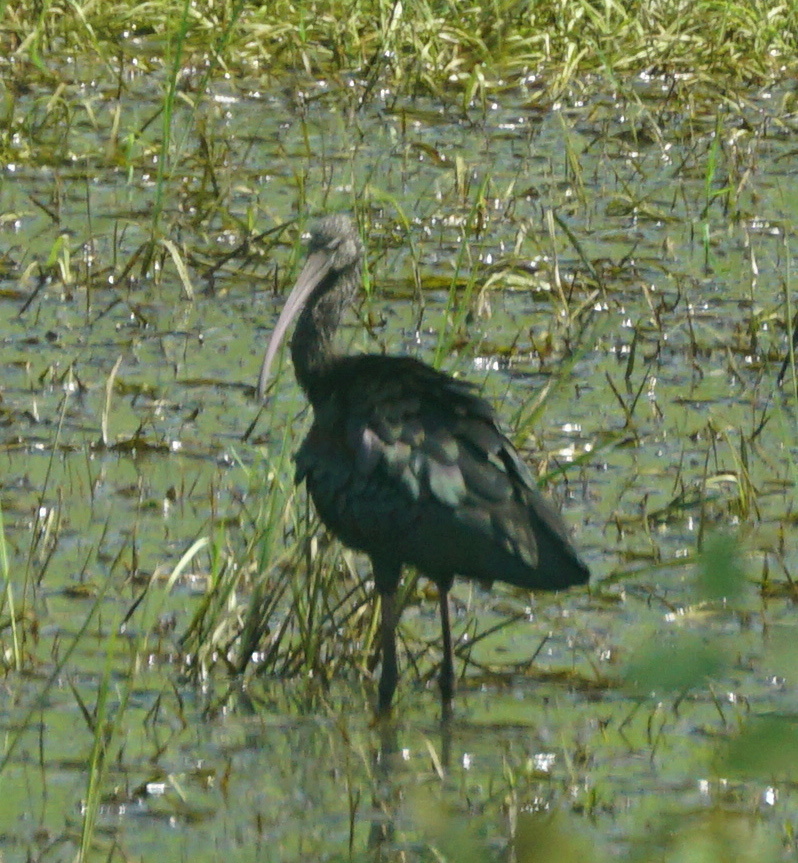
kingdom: Animalia
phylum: Chordata
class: Aves
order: Pelecaniformes
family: Threskiornithidae
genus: Plegadis
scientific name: Plegadis falcinellus
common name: Glossy ibis
